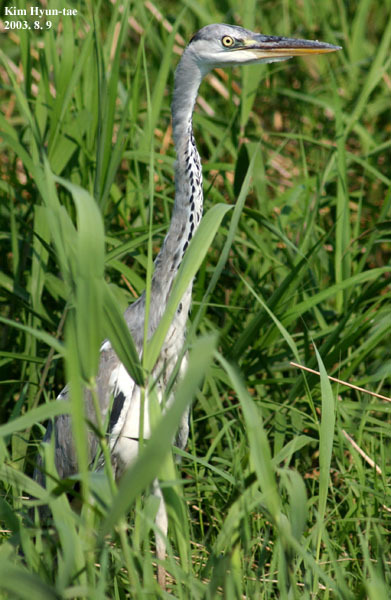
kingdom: Animalia
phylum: Chordata
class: Aves
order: Pelecaniformes
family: Ardeidae
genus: Ardea
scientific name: Ardea cinerea
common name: Grey heron
